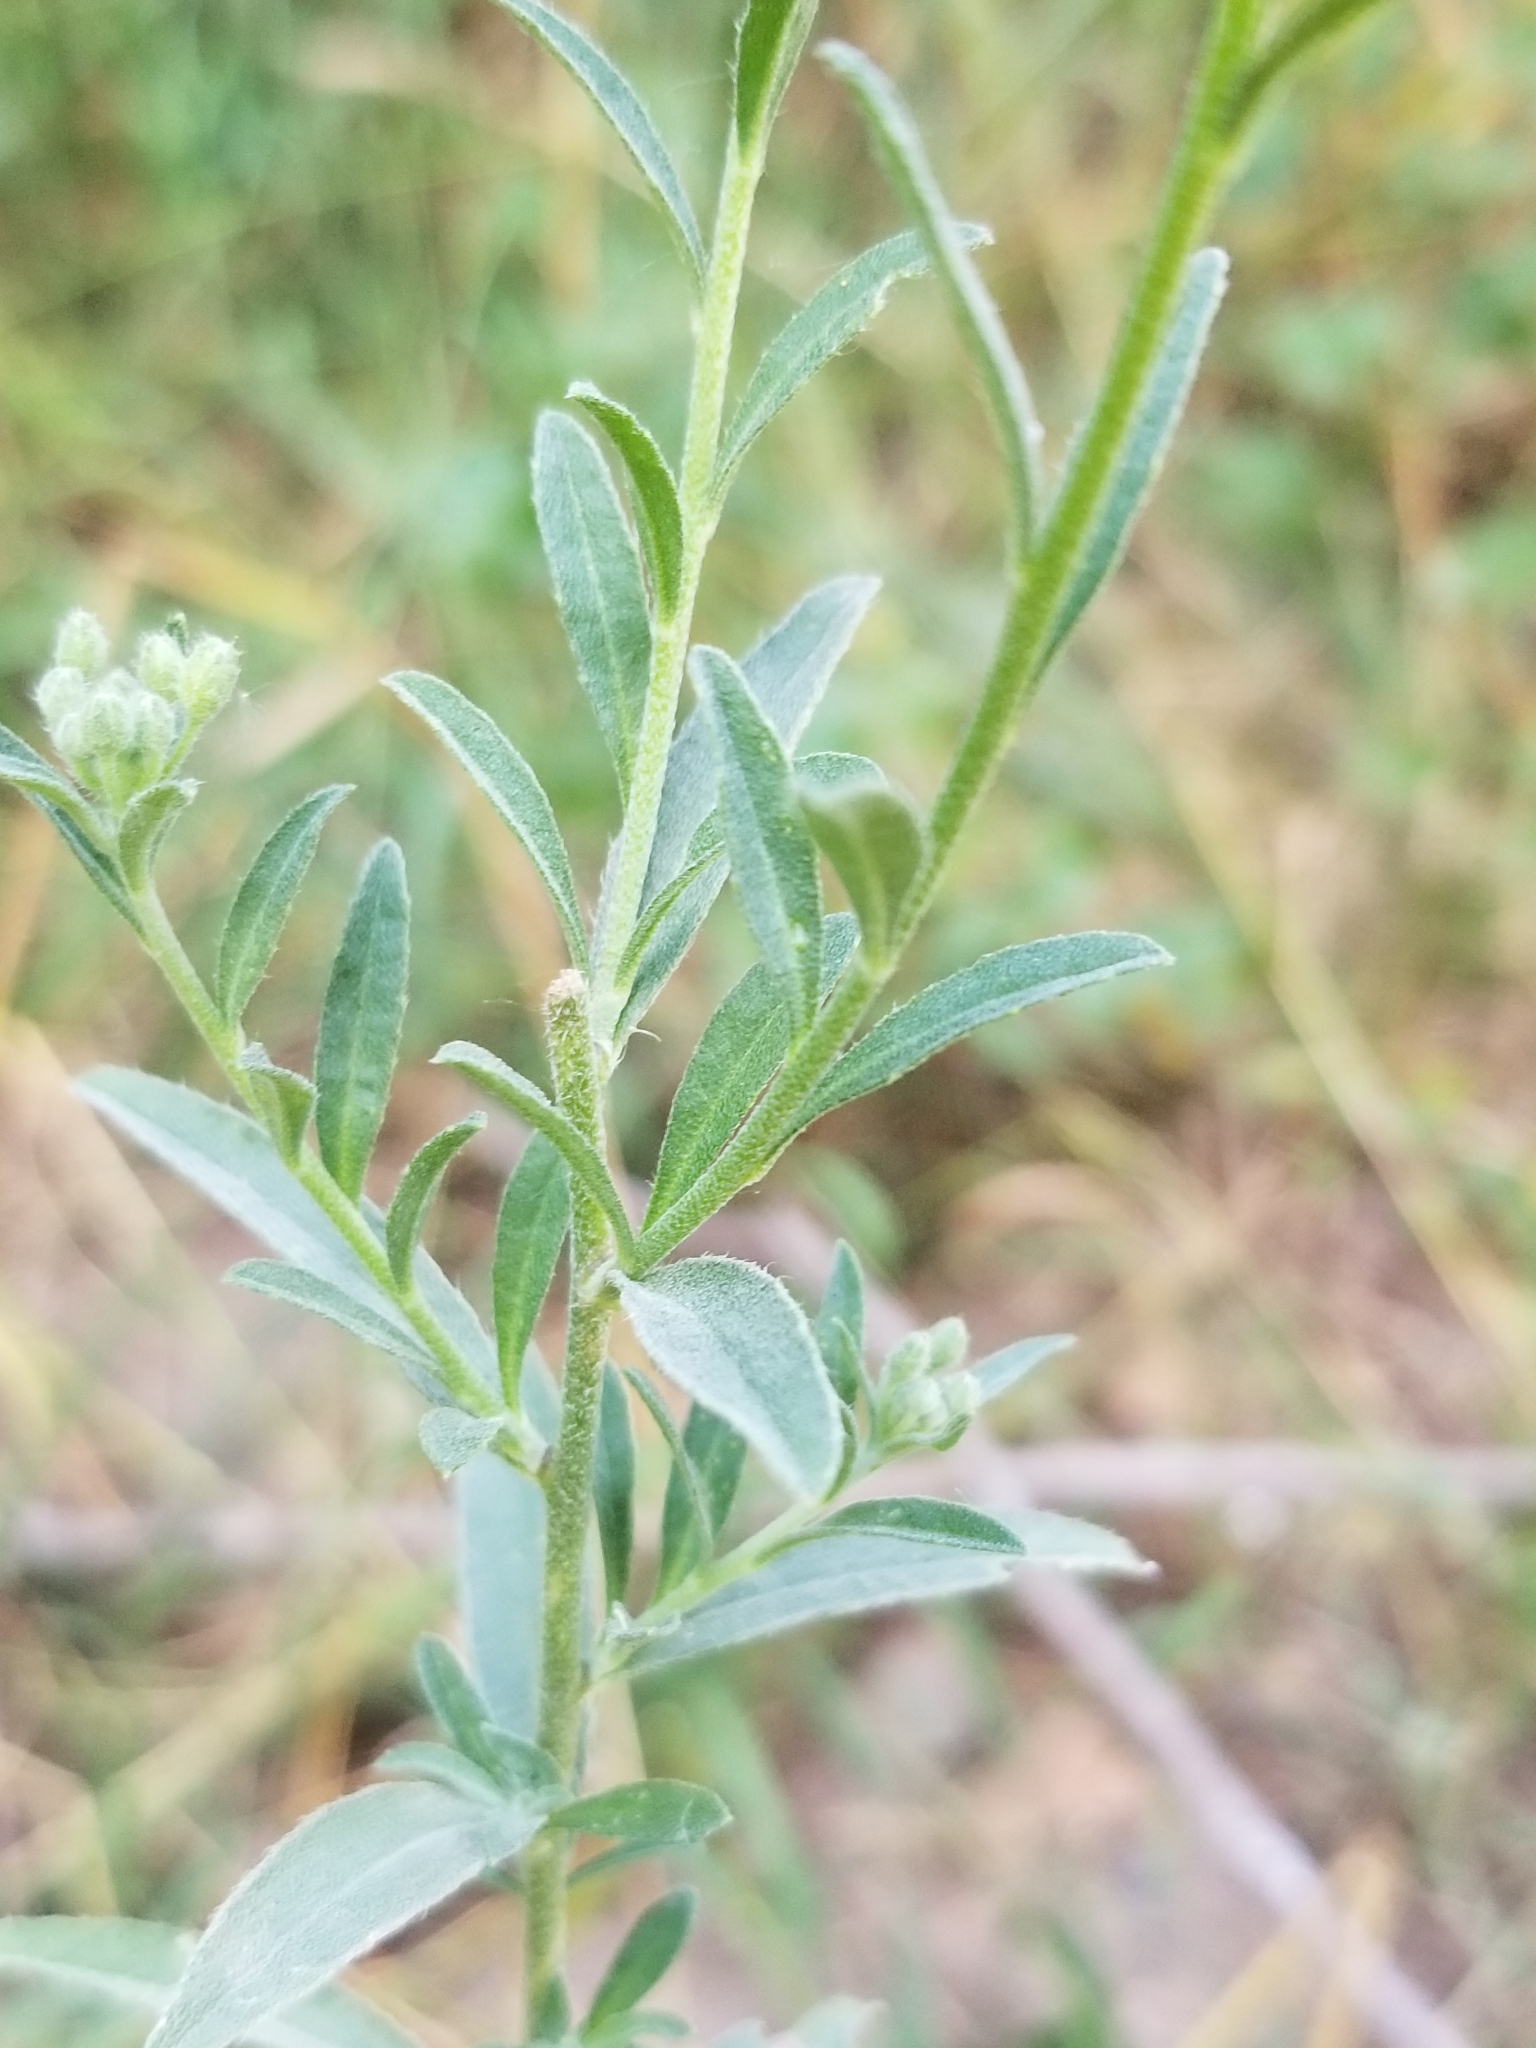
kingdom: Plantae
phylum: Tracheophyta
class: Magnoliopsida
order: Brassicales
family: Brassicaceae
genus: Berteroa
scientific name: Berteroa incana
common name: Hoary alison
